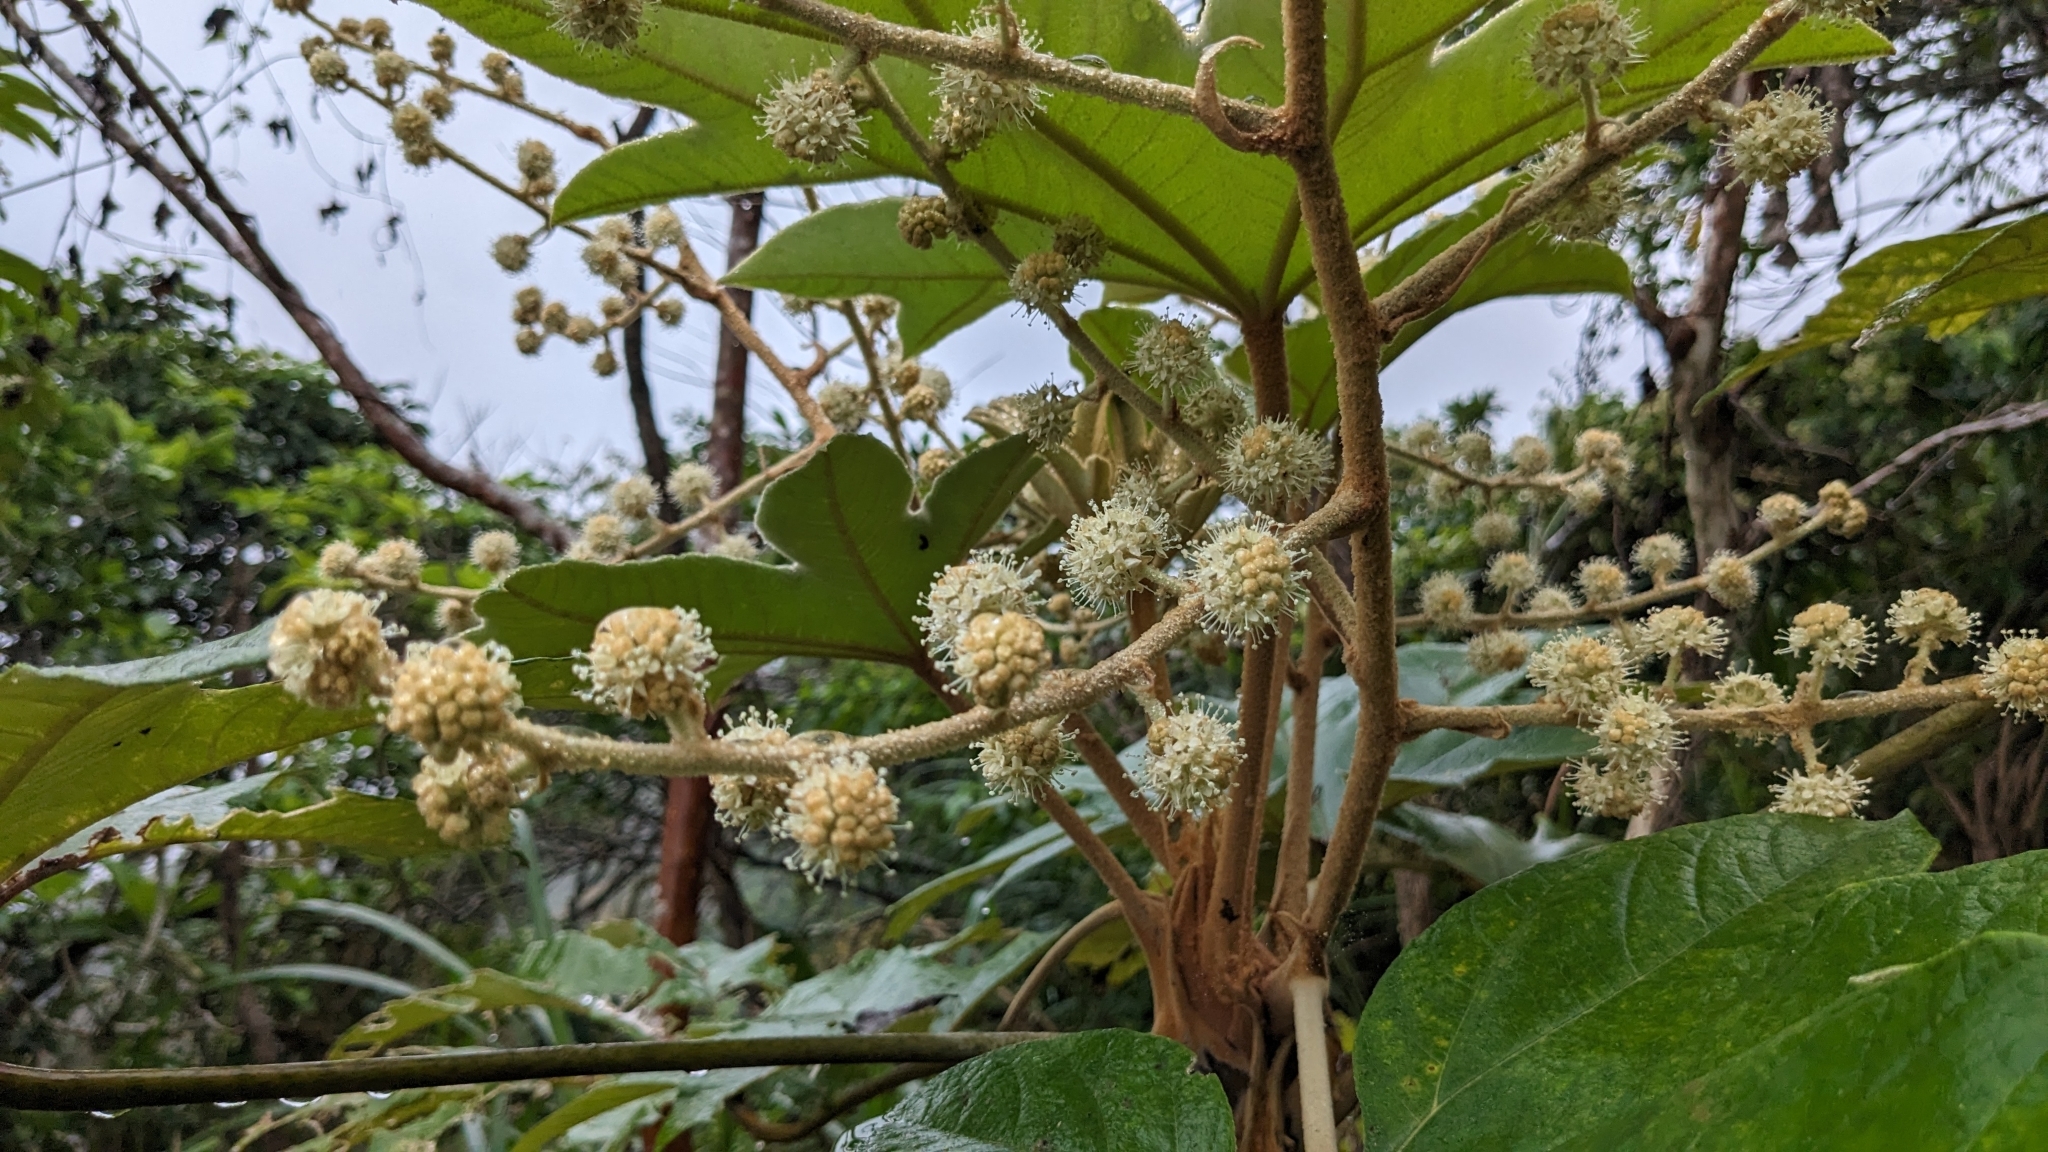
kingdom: Plantae
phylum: Tracheophyta
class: Magnoliopsida
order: Apiales
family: Araliaceae
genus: Tetrapanax
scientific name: Tetrapanax papyrifer
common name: Rice-paper plant
